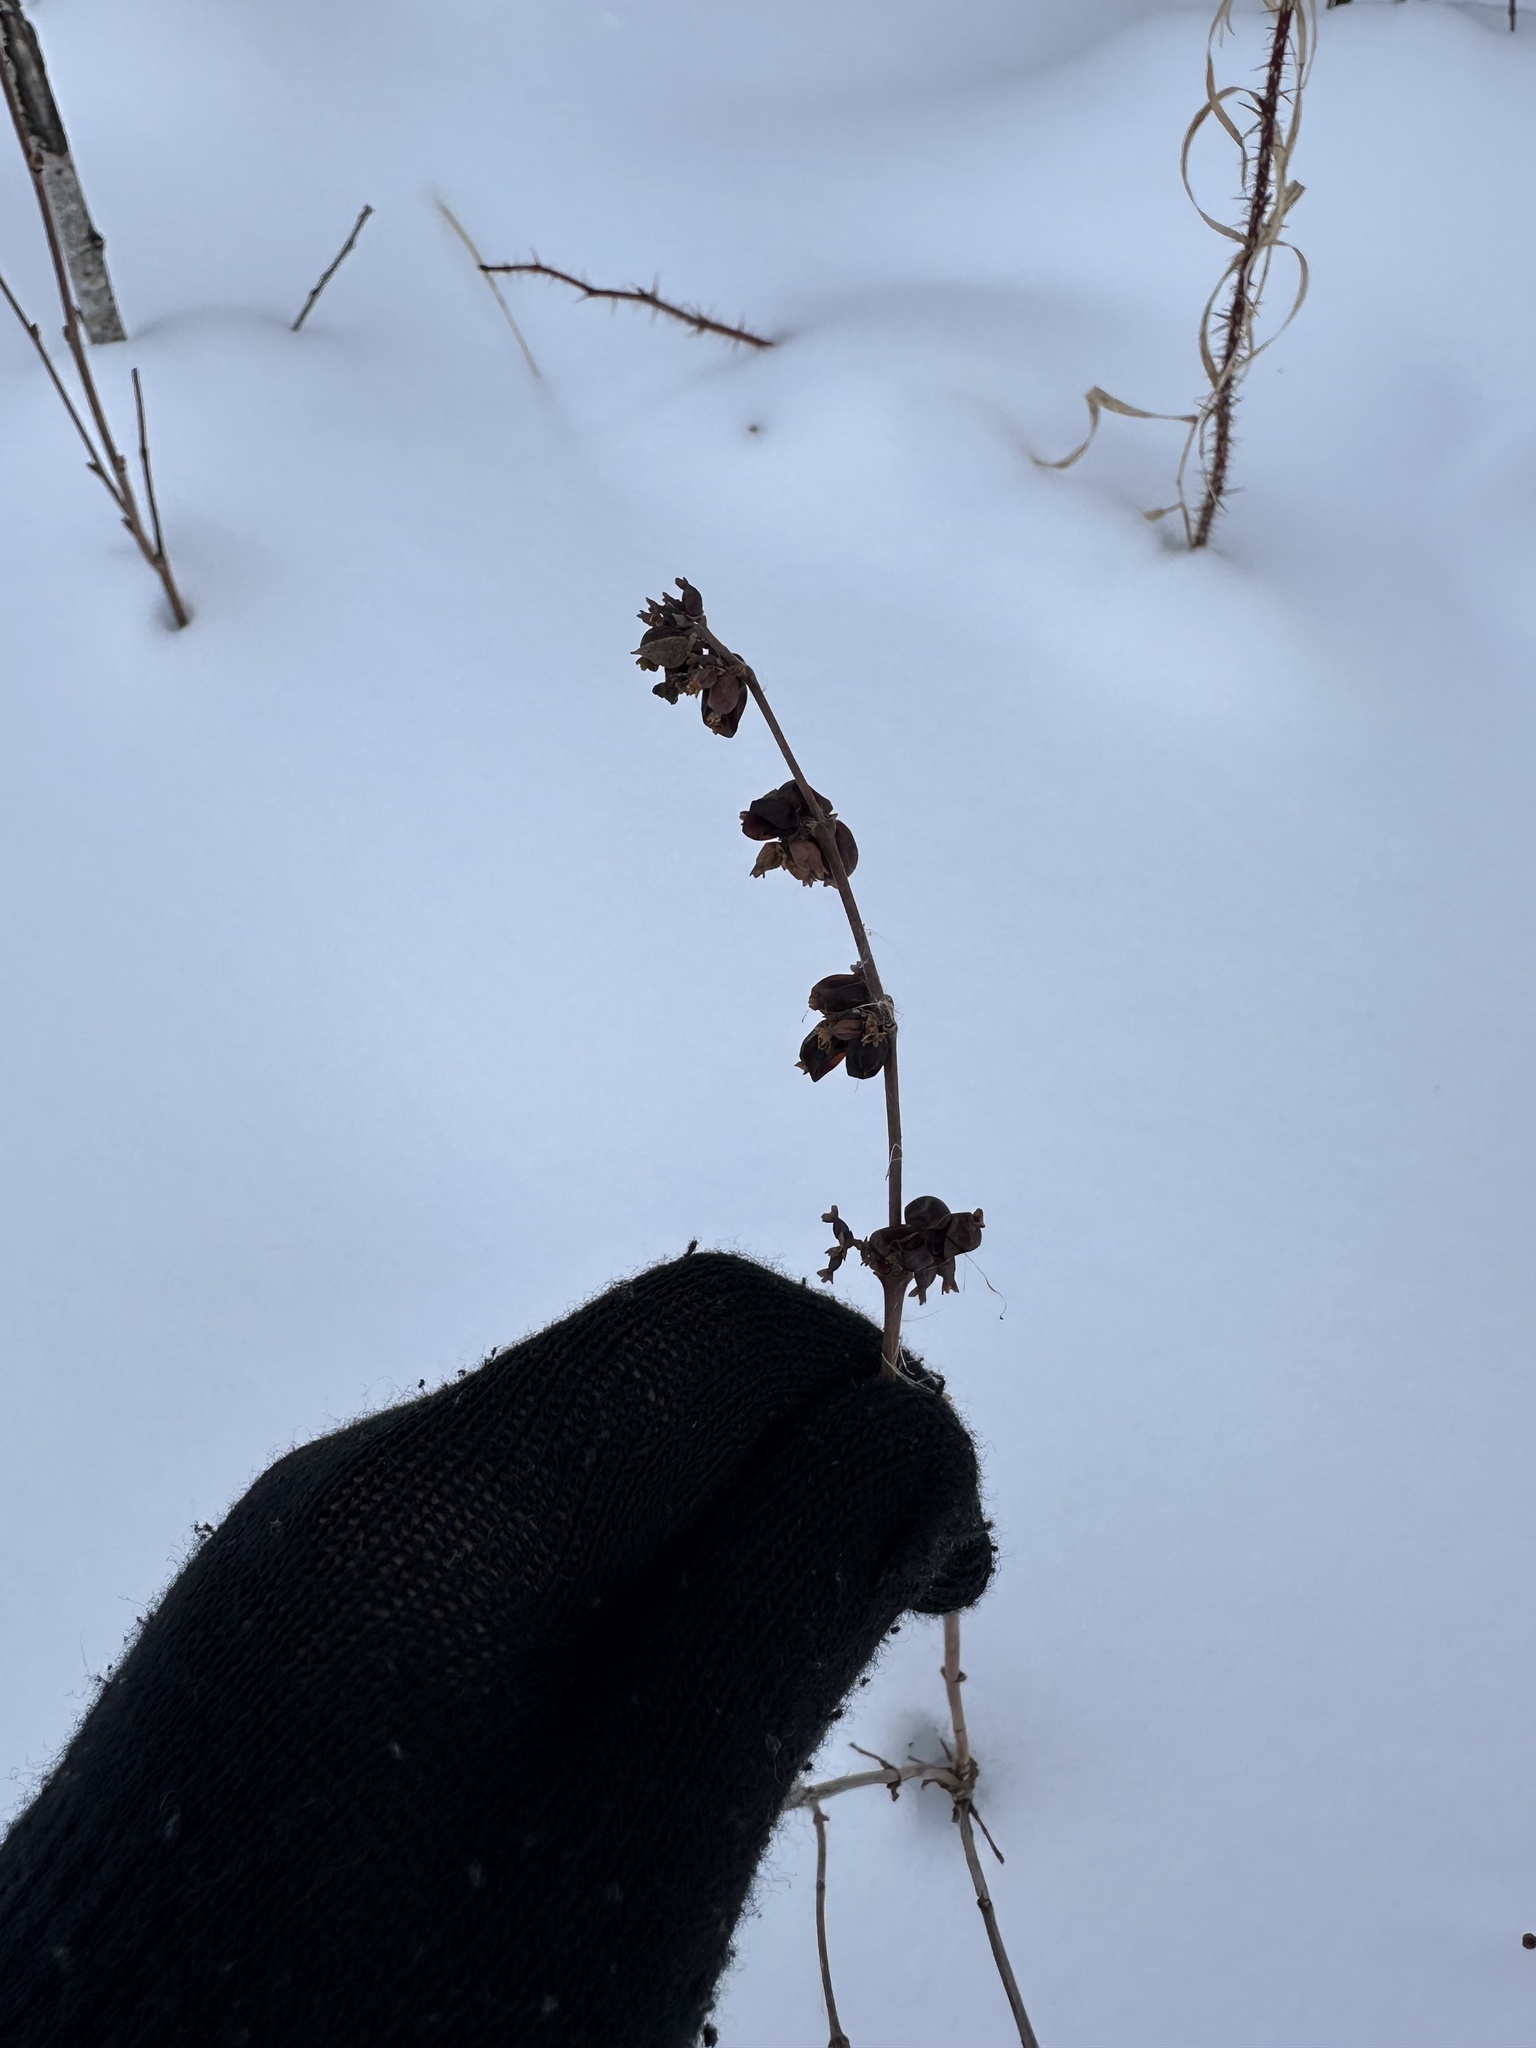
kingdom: Plantae
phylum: Tracheophyta
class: Magnoliopsida
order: Dipsacales
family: Caprifoliaceae
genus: Symphoricarpos
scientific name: Symphoricarpos occidentalis
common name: Wolfberry
